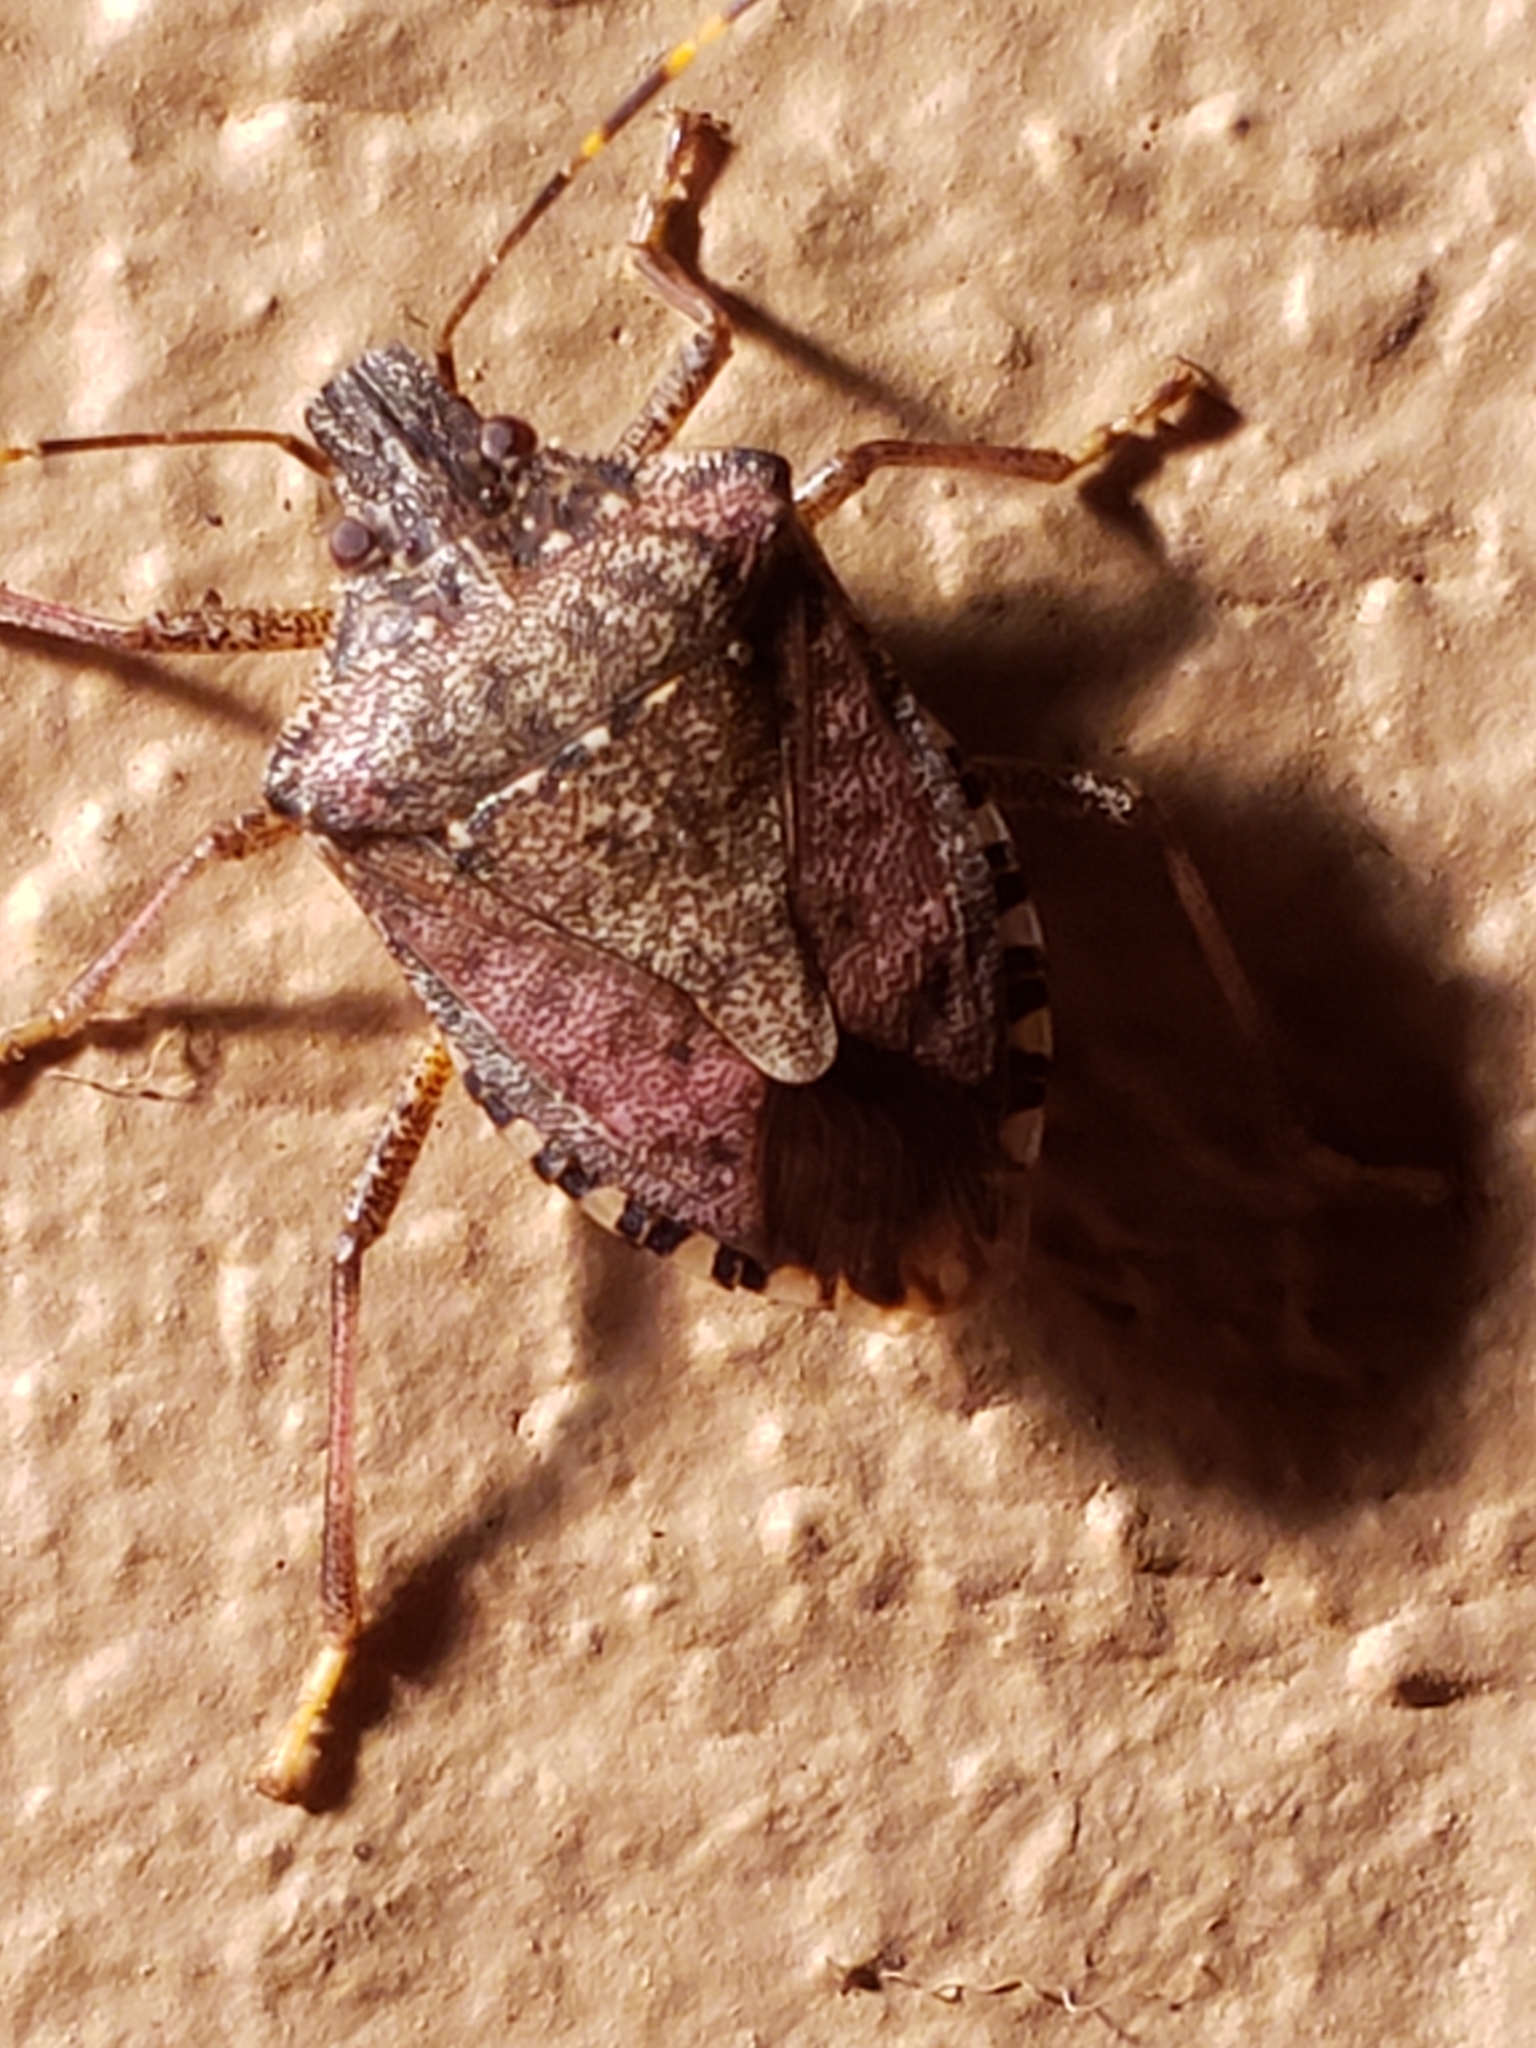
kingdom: Animalia
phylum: Arthropoda
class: Insecta
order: Hemiptera
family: Pentatomidae
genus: Halyomorpha
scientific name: Halyomorpha halys
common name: Brown marmorated stink bug
